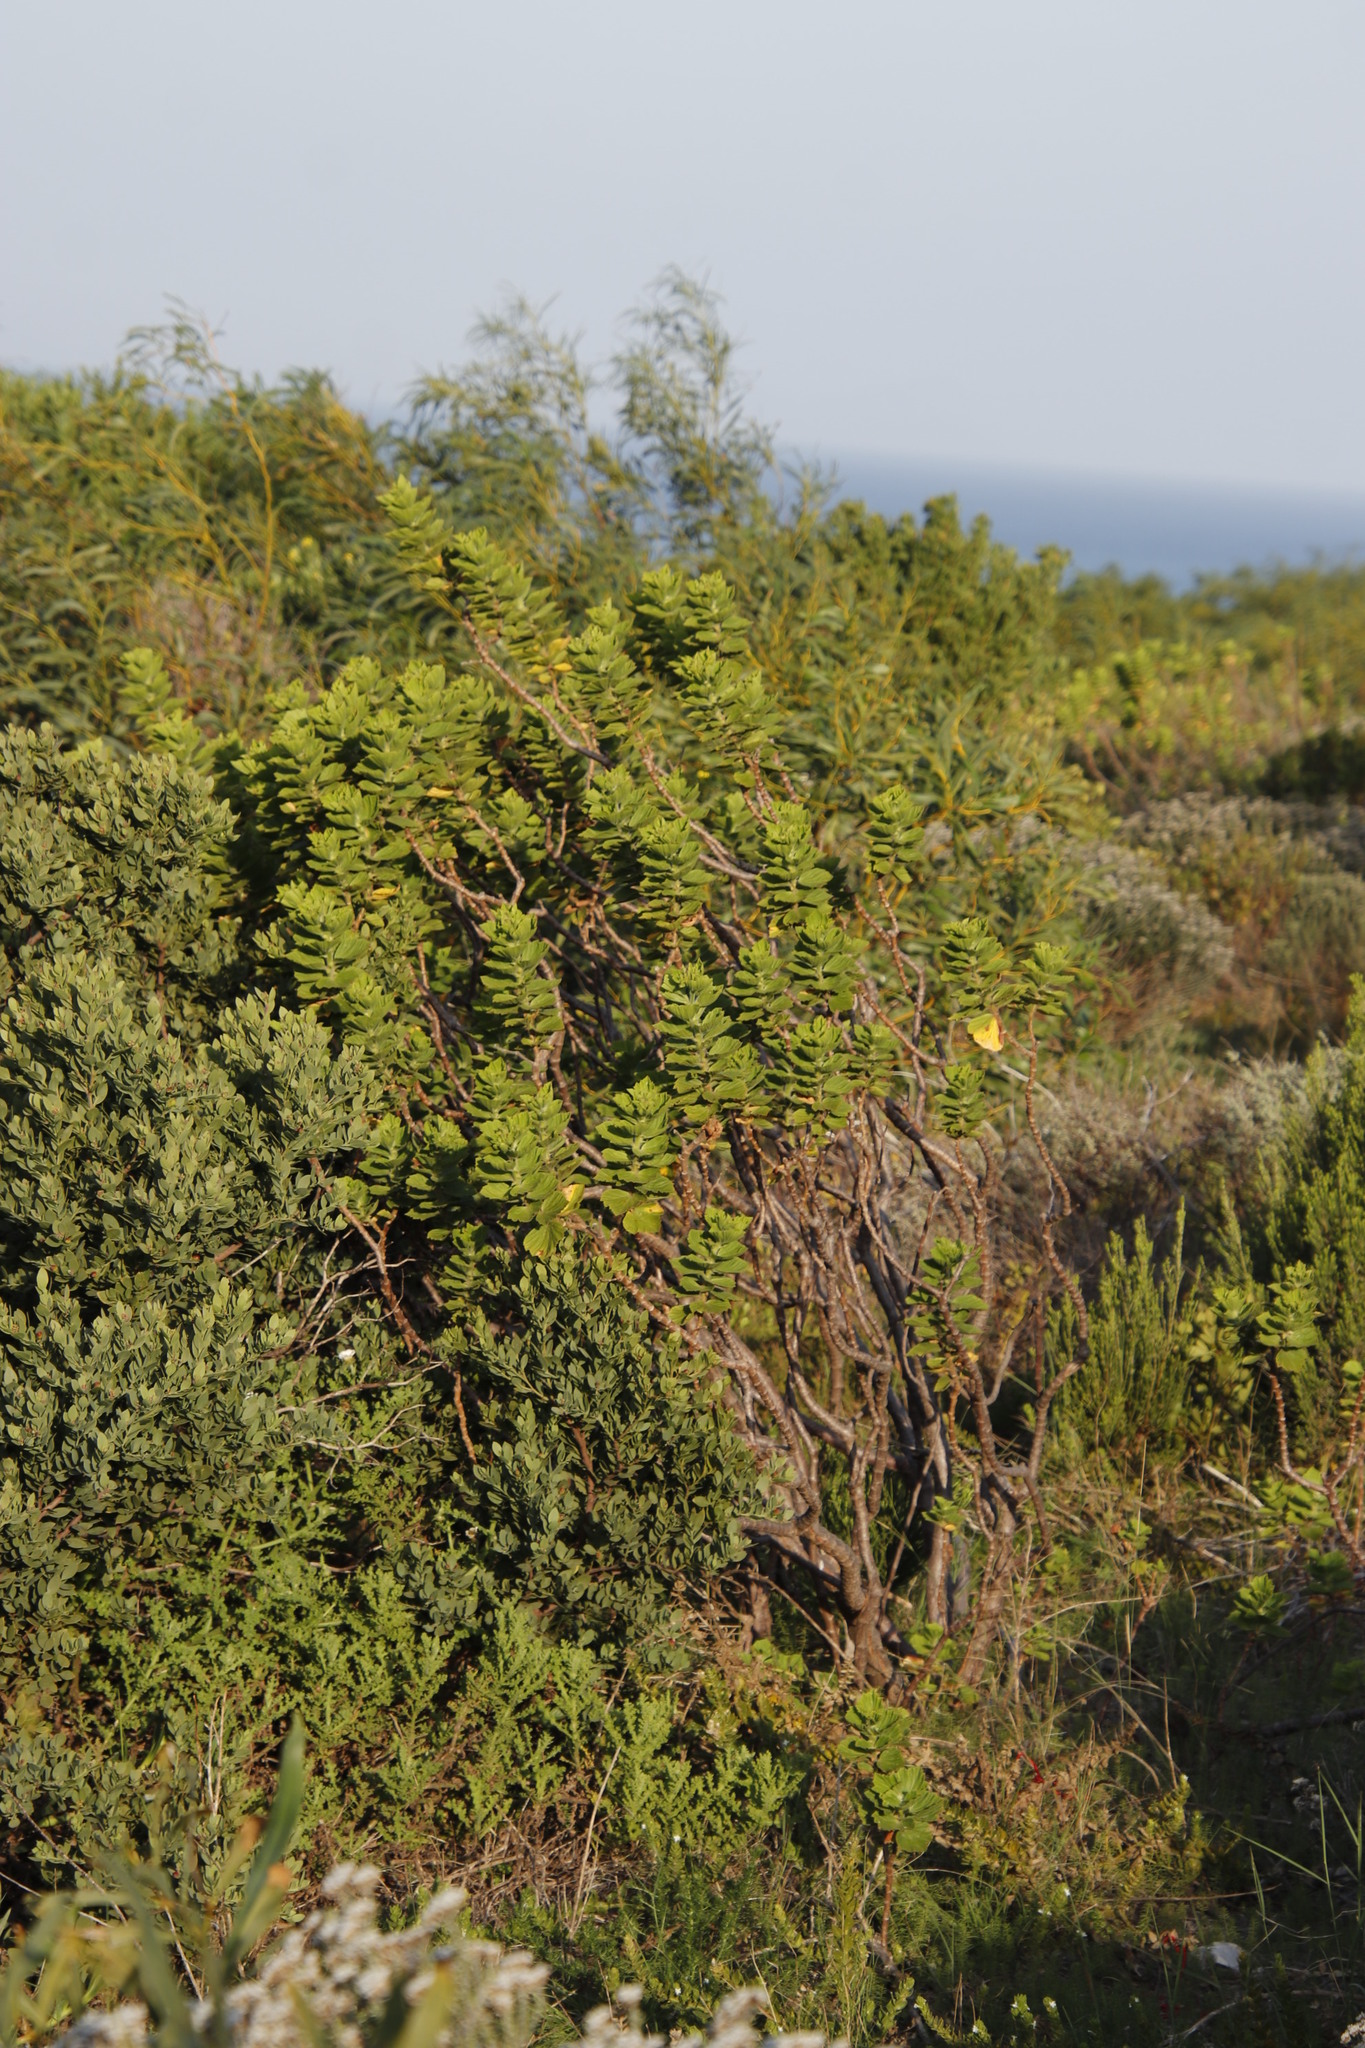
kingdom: Plantae
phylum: Tracheophyta
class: Magnoliopsida
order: Geraniales
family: Geraniaceae
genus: Pelargonium
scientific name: Pelargonium cucullatum
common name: Tree pelargonium
